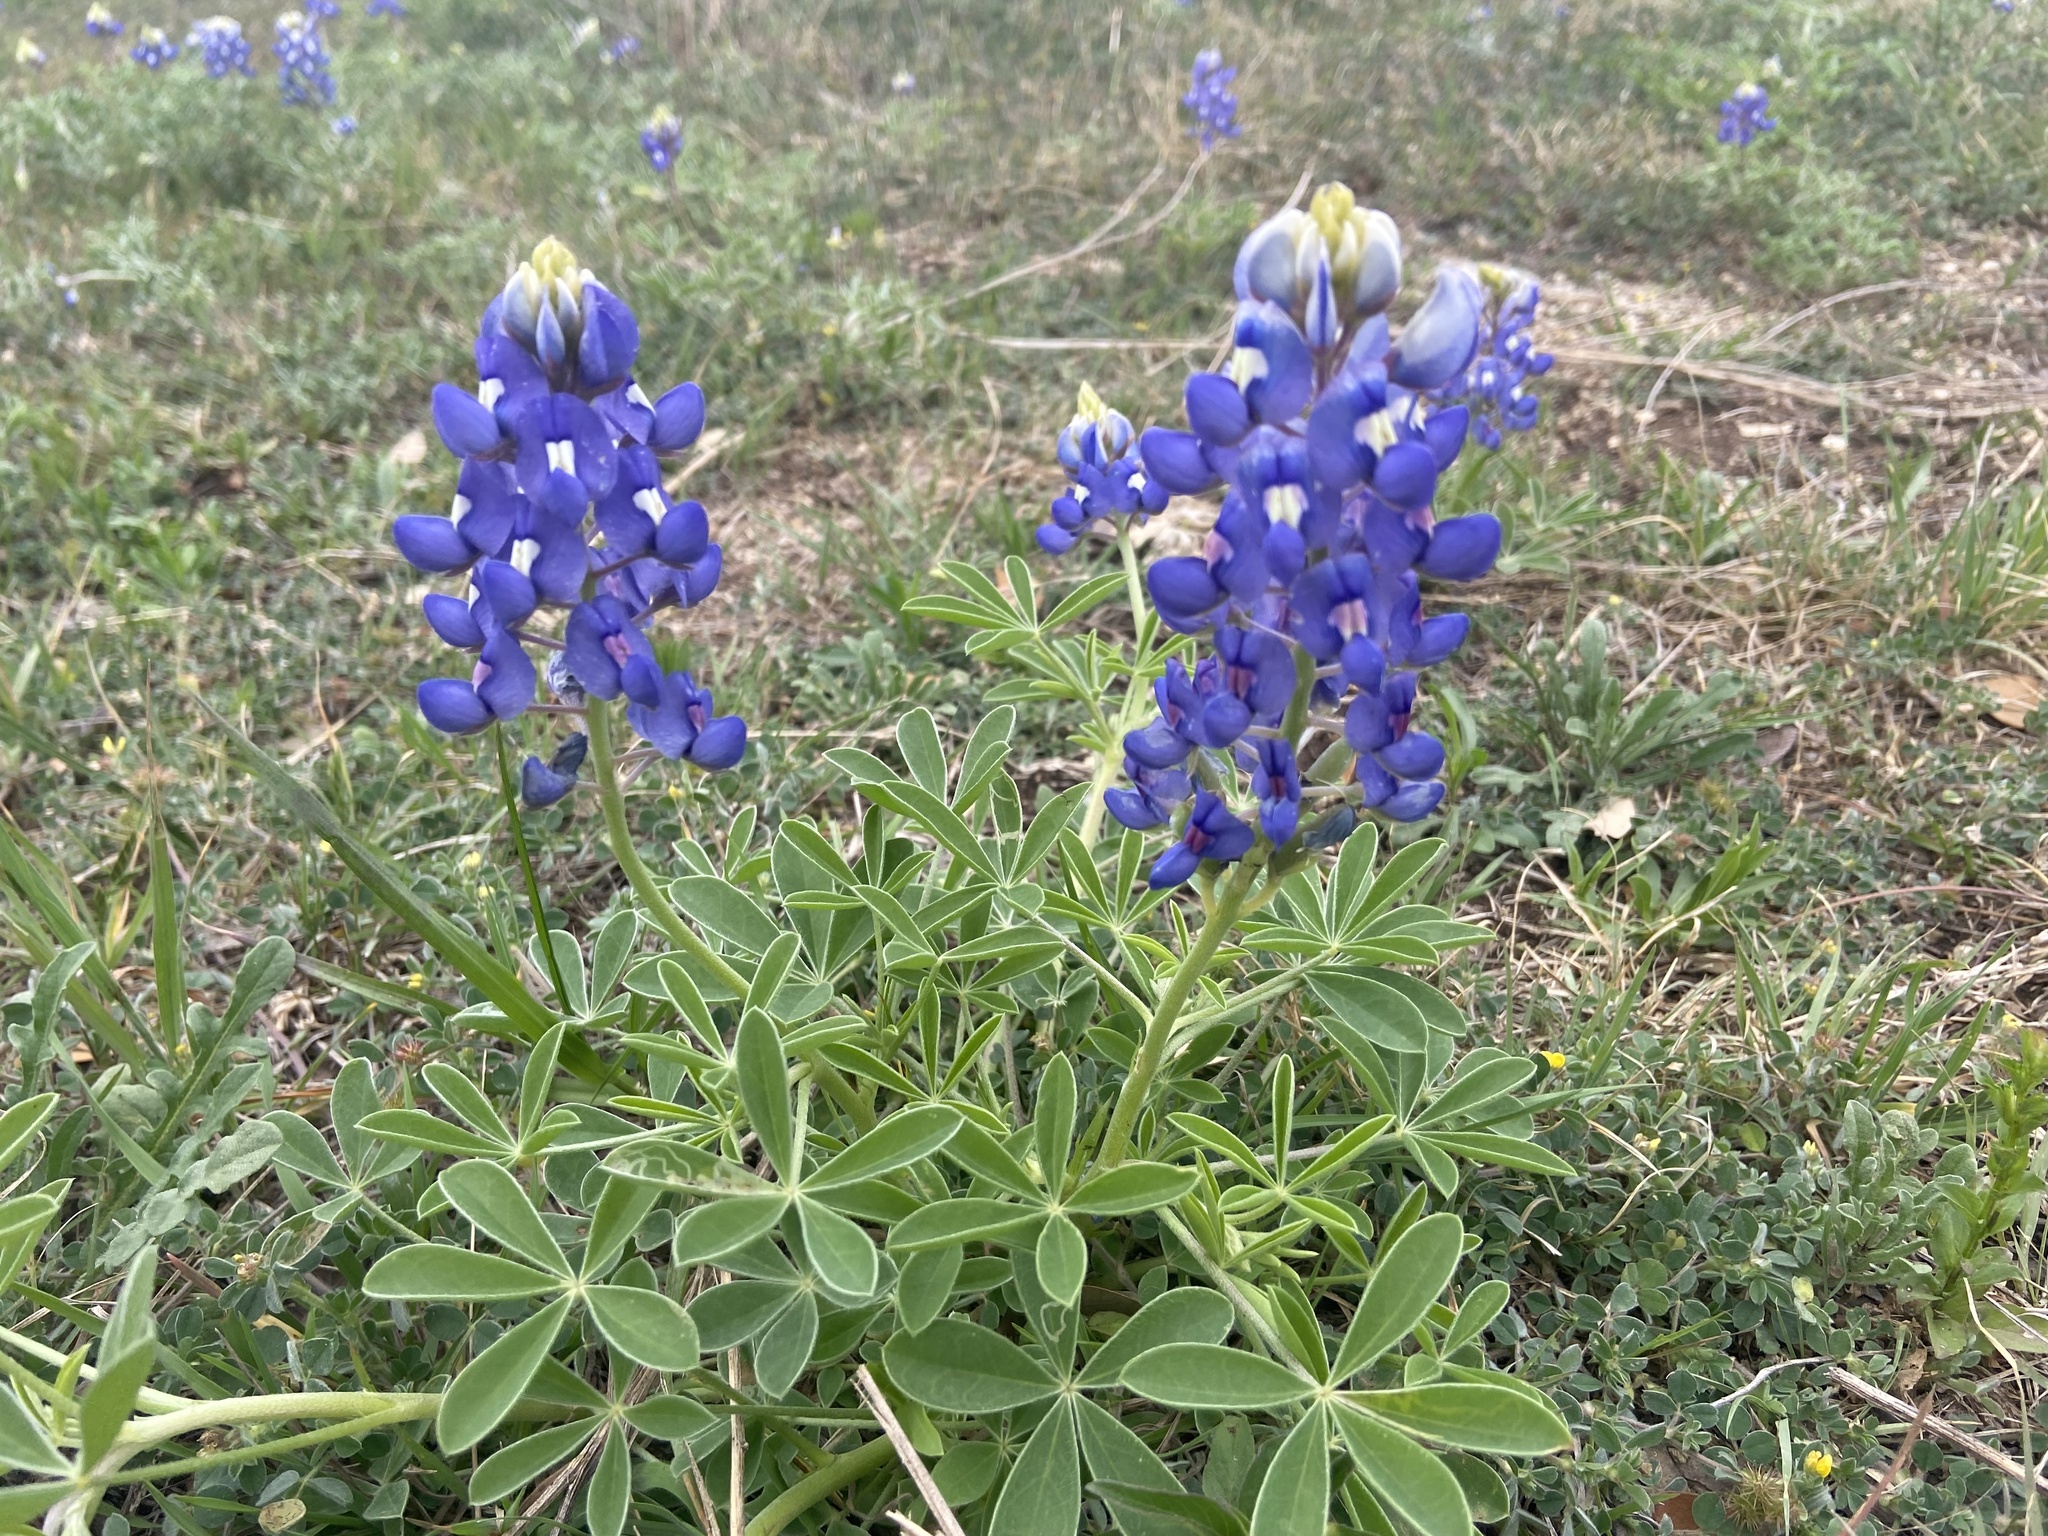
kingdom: Plantae
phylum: Tracheophyta
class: Magnoliopsida
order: Fabales
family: Fabaceae
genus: Lupinus
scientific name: Lupinus texensis
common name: Texas bluebonnet
